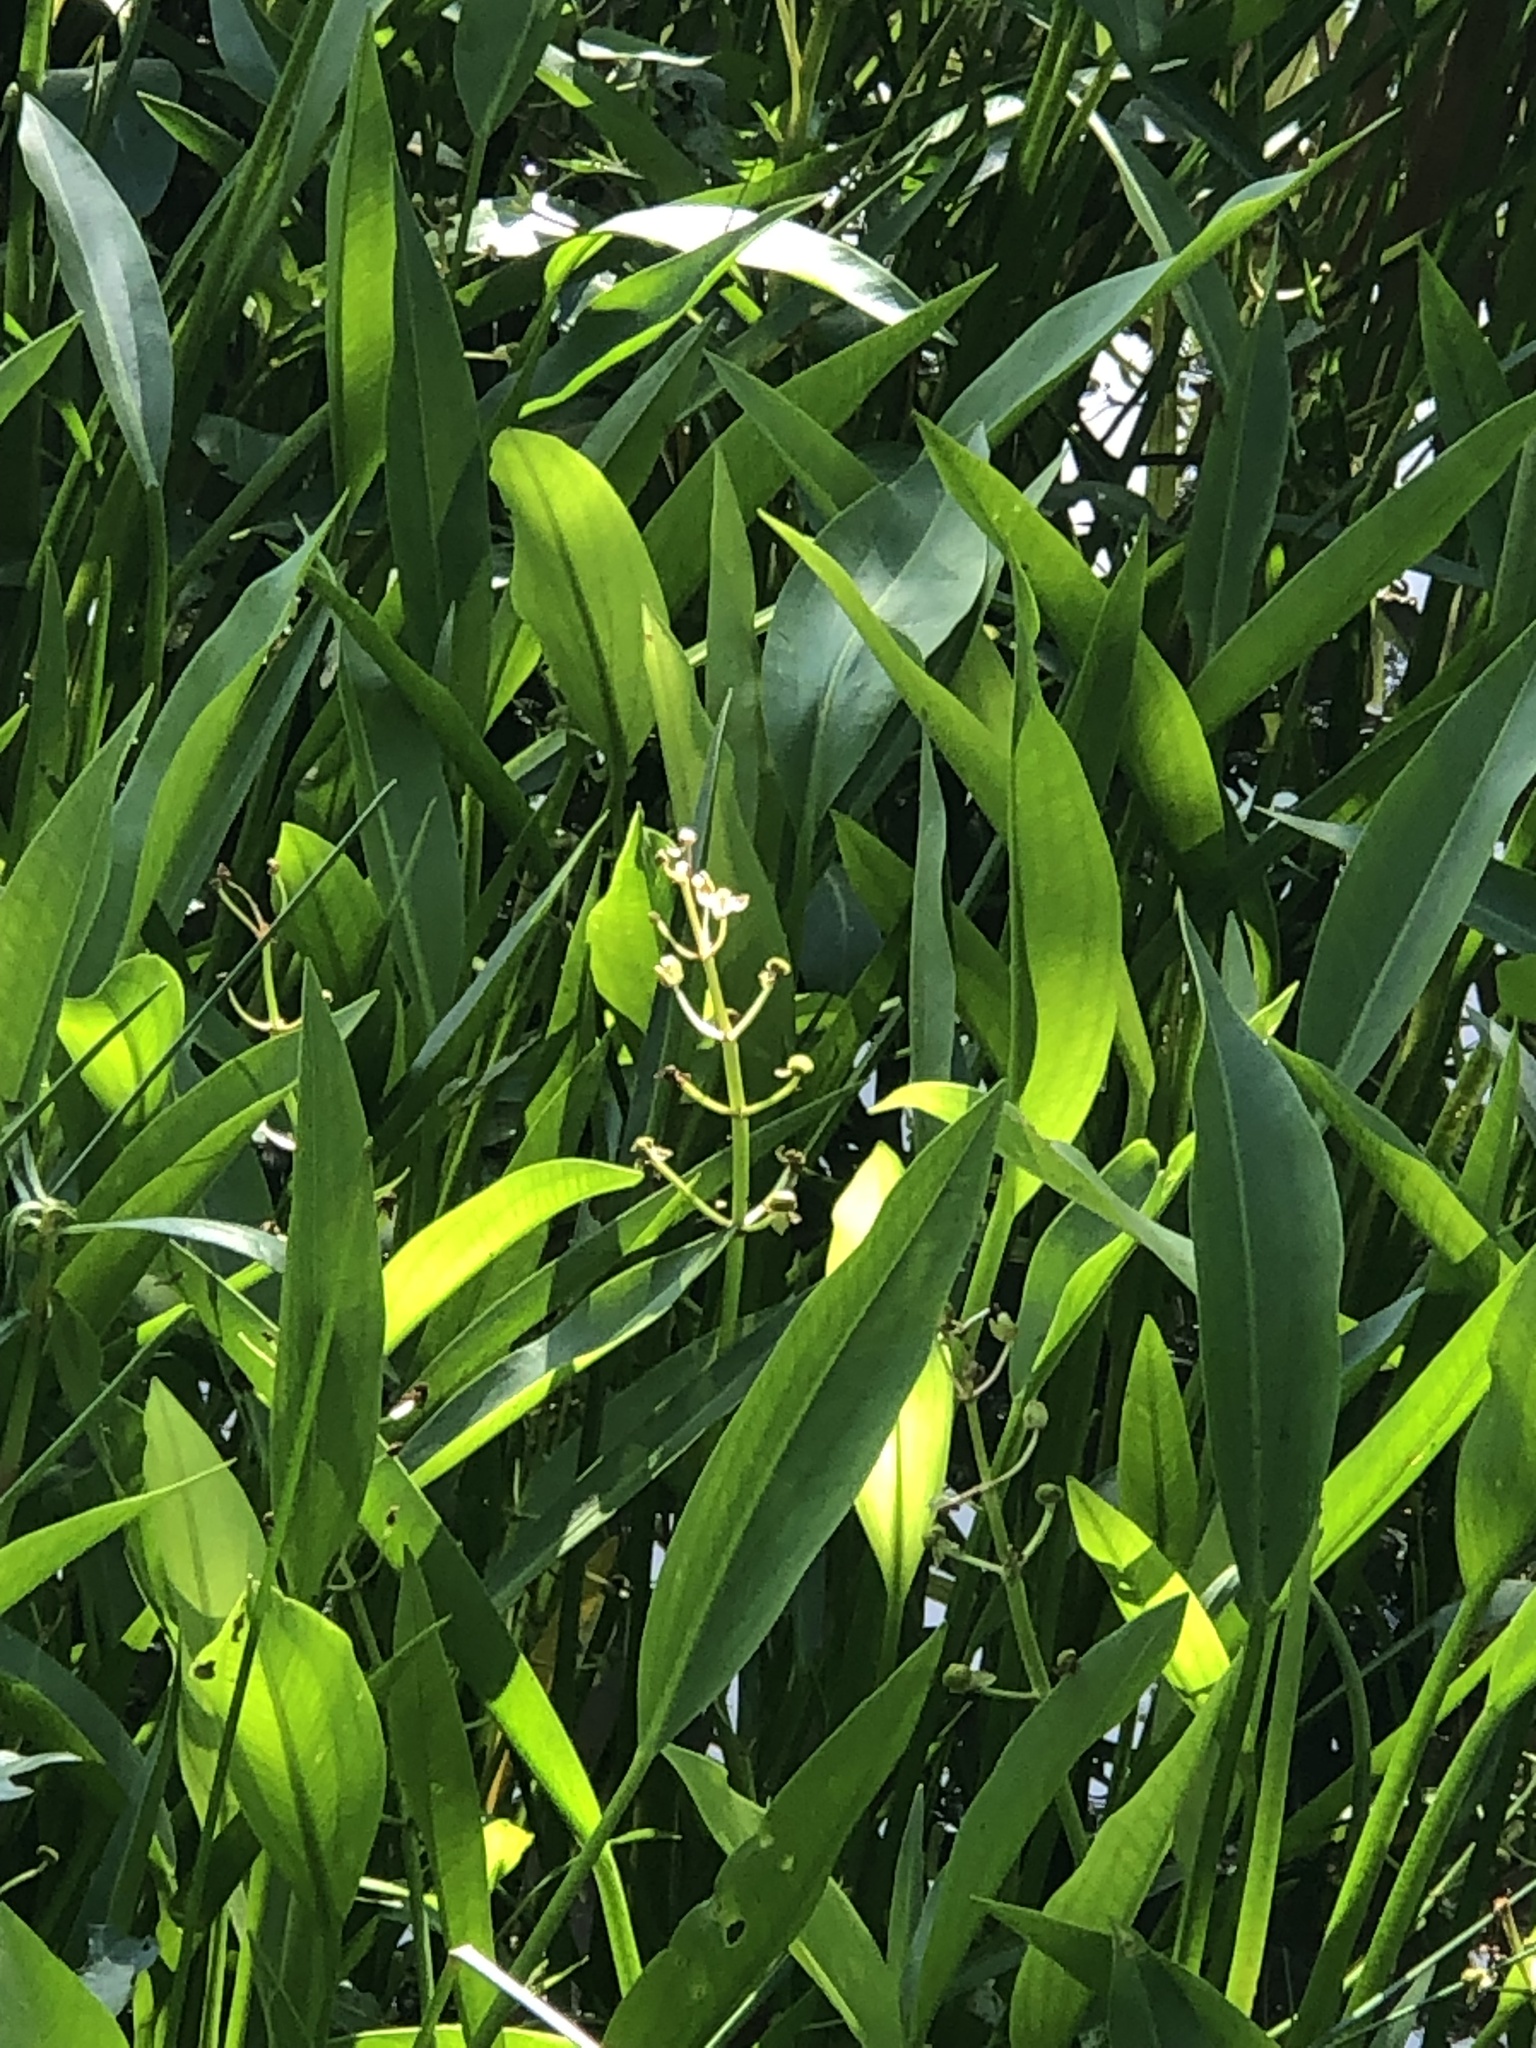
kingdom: Plantae
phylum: Tracheophyta
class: Liliopsida
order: Alismatales
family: Alismataceae
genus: Sagittaria
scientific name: Sagittaria lancifolia
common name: Lance-leaf arrowhead
